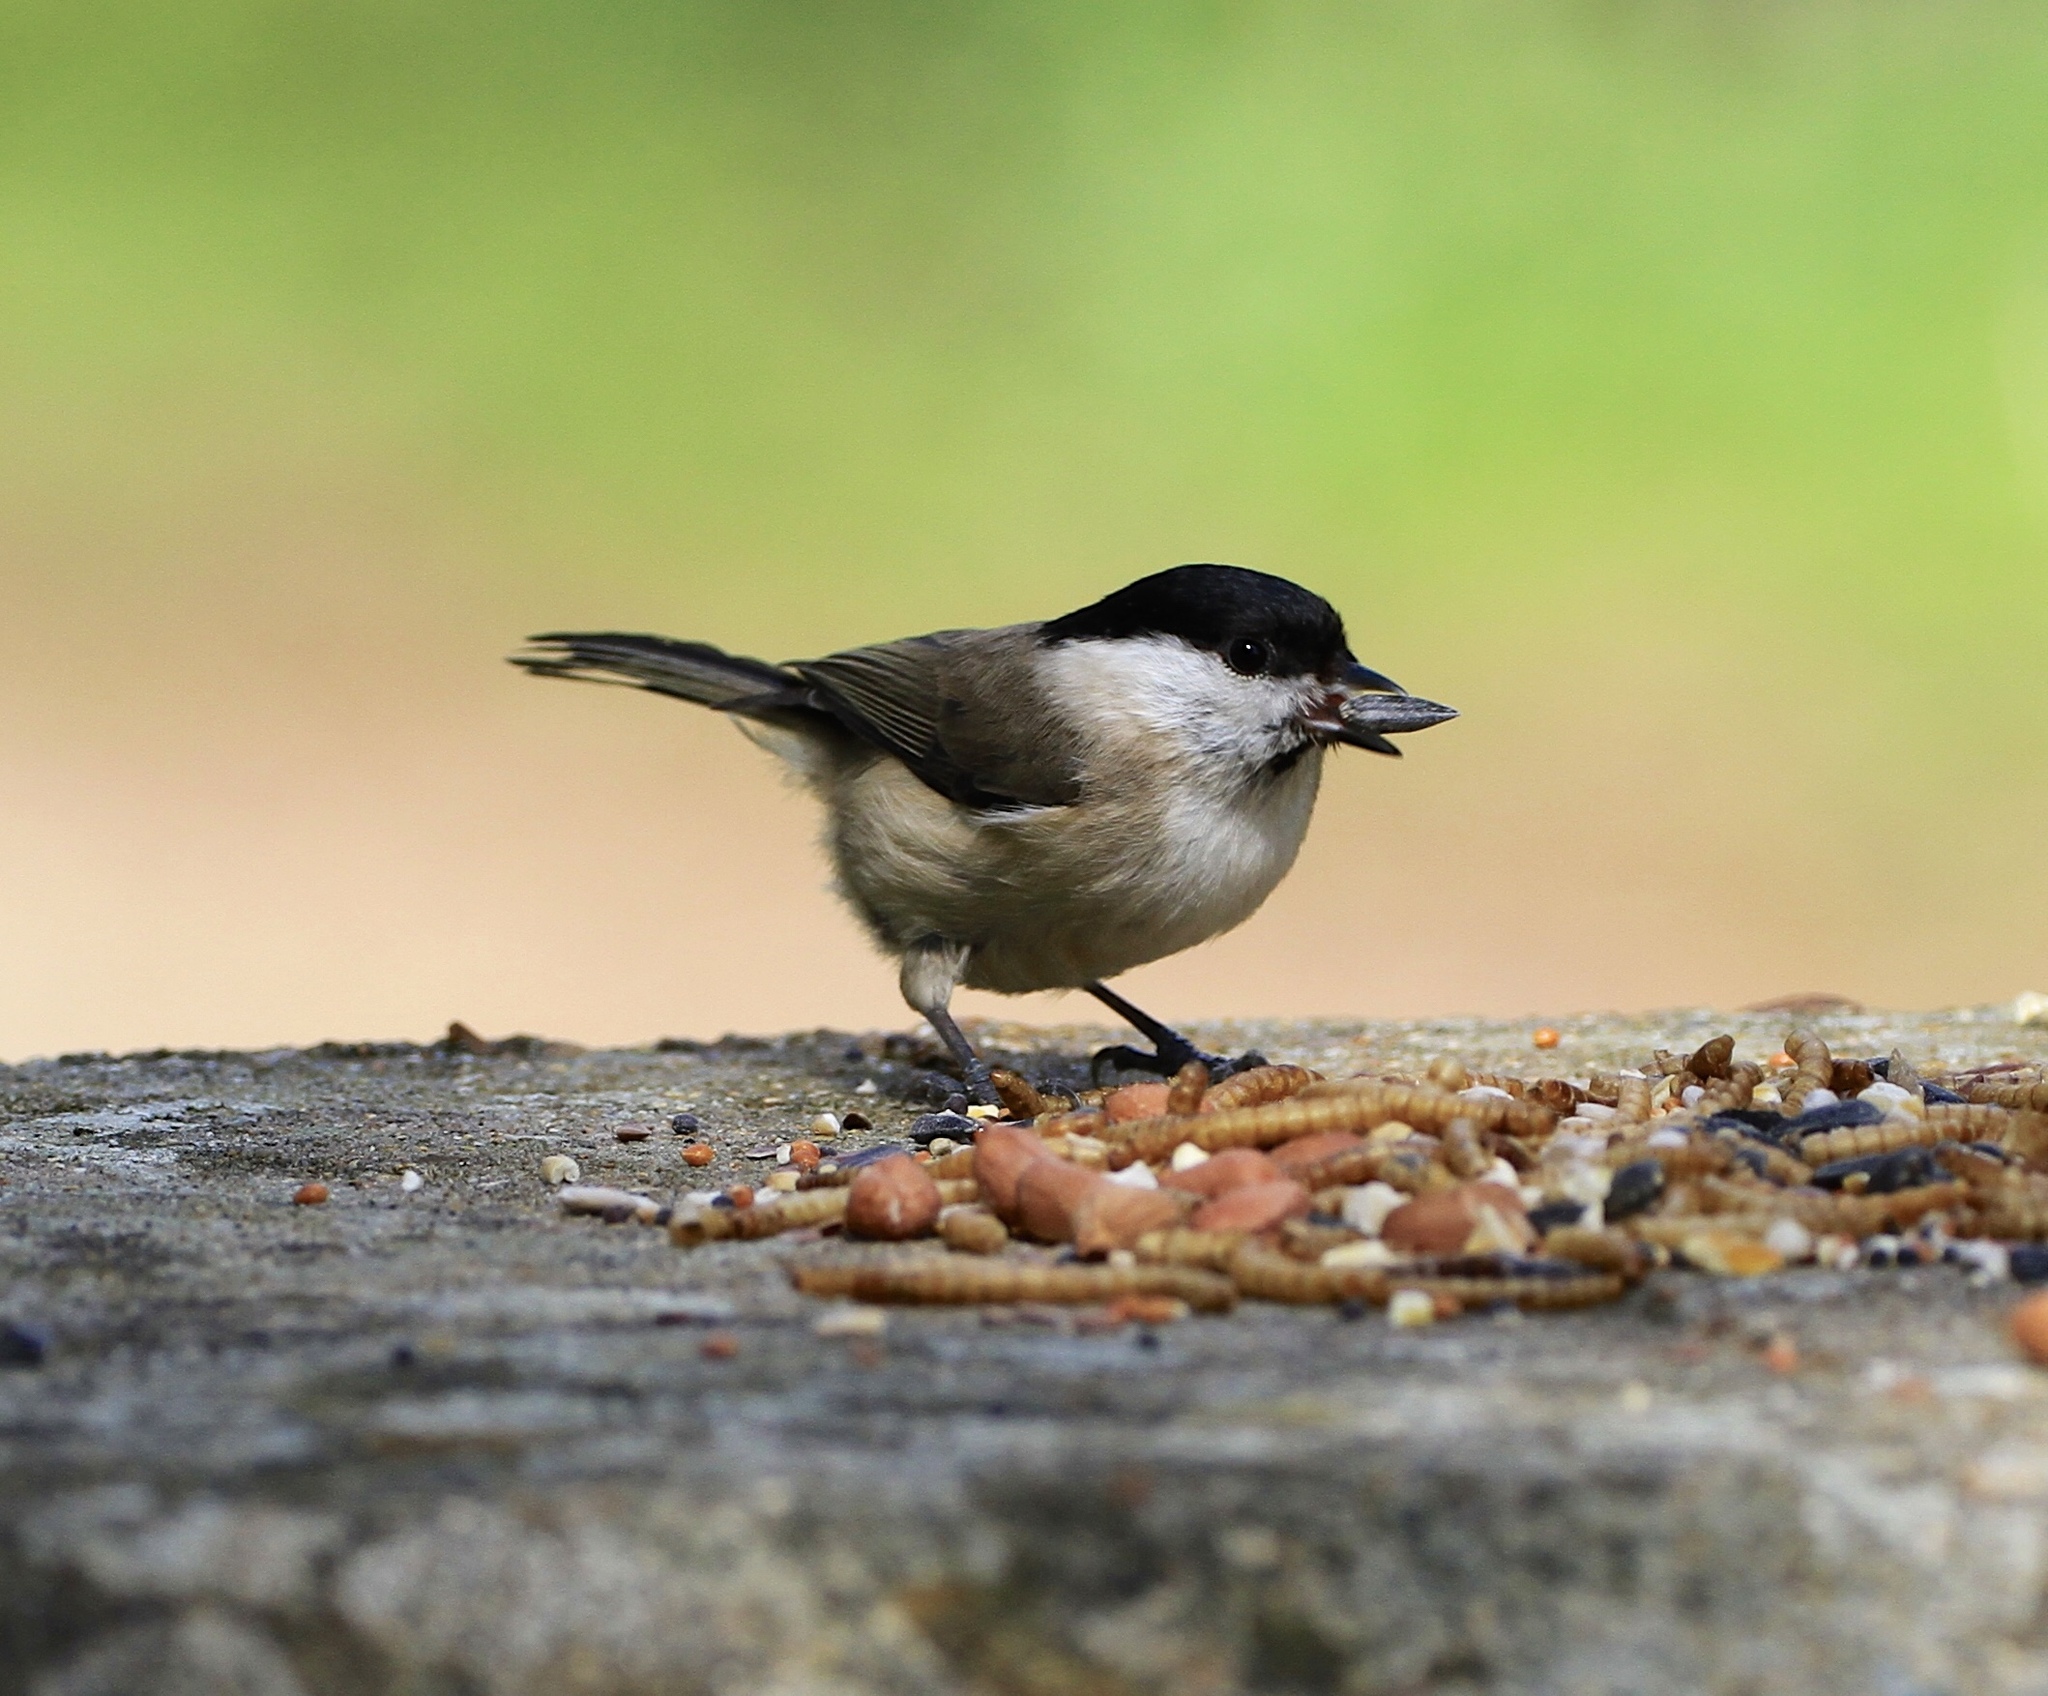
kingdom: Animalia
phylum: Chordata
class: Aves
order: Passeriformes
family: Paridae
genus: Poecile
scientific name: Poecile palustris
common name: Marsh tit
